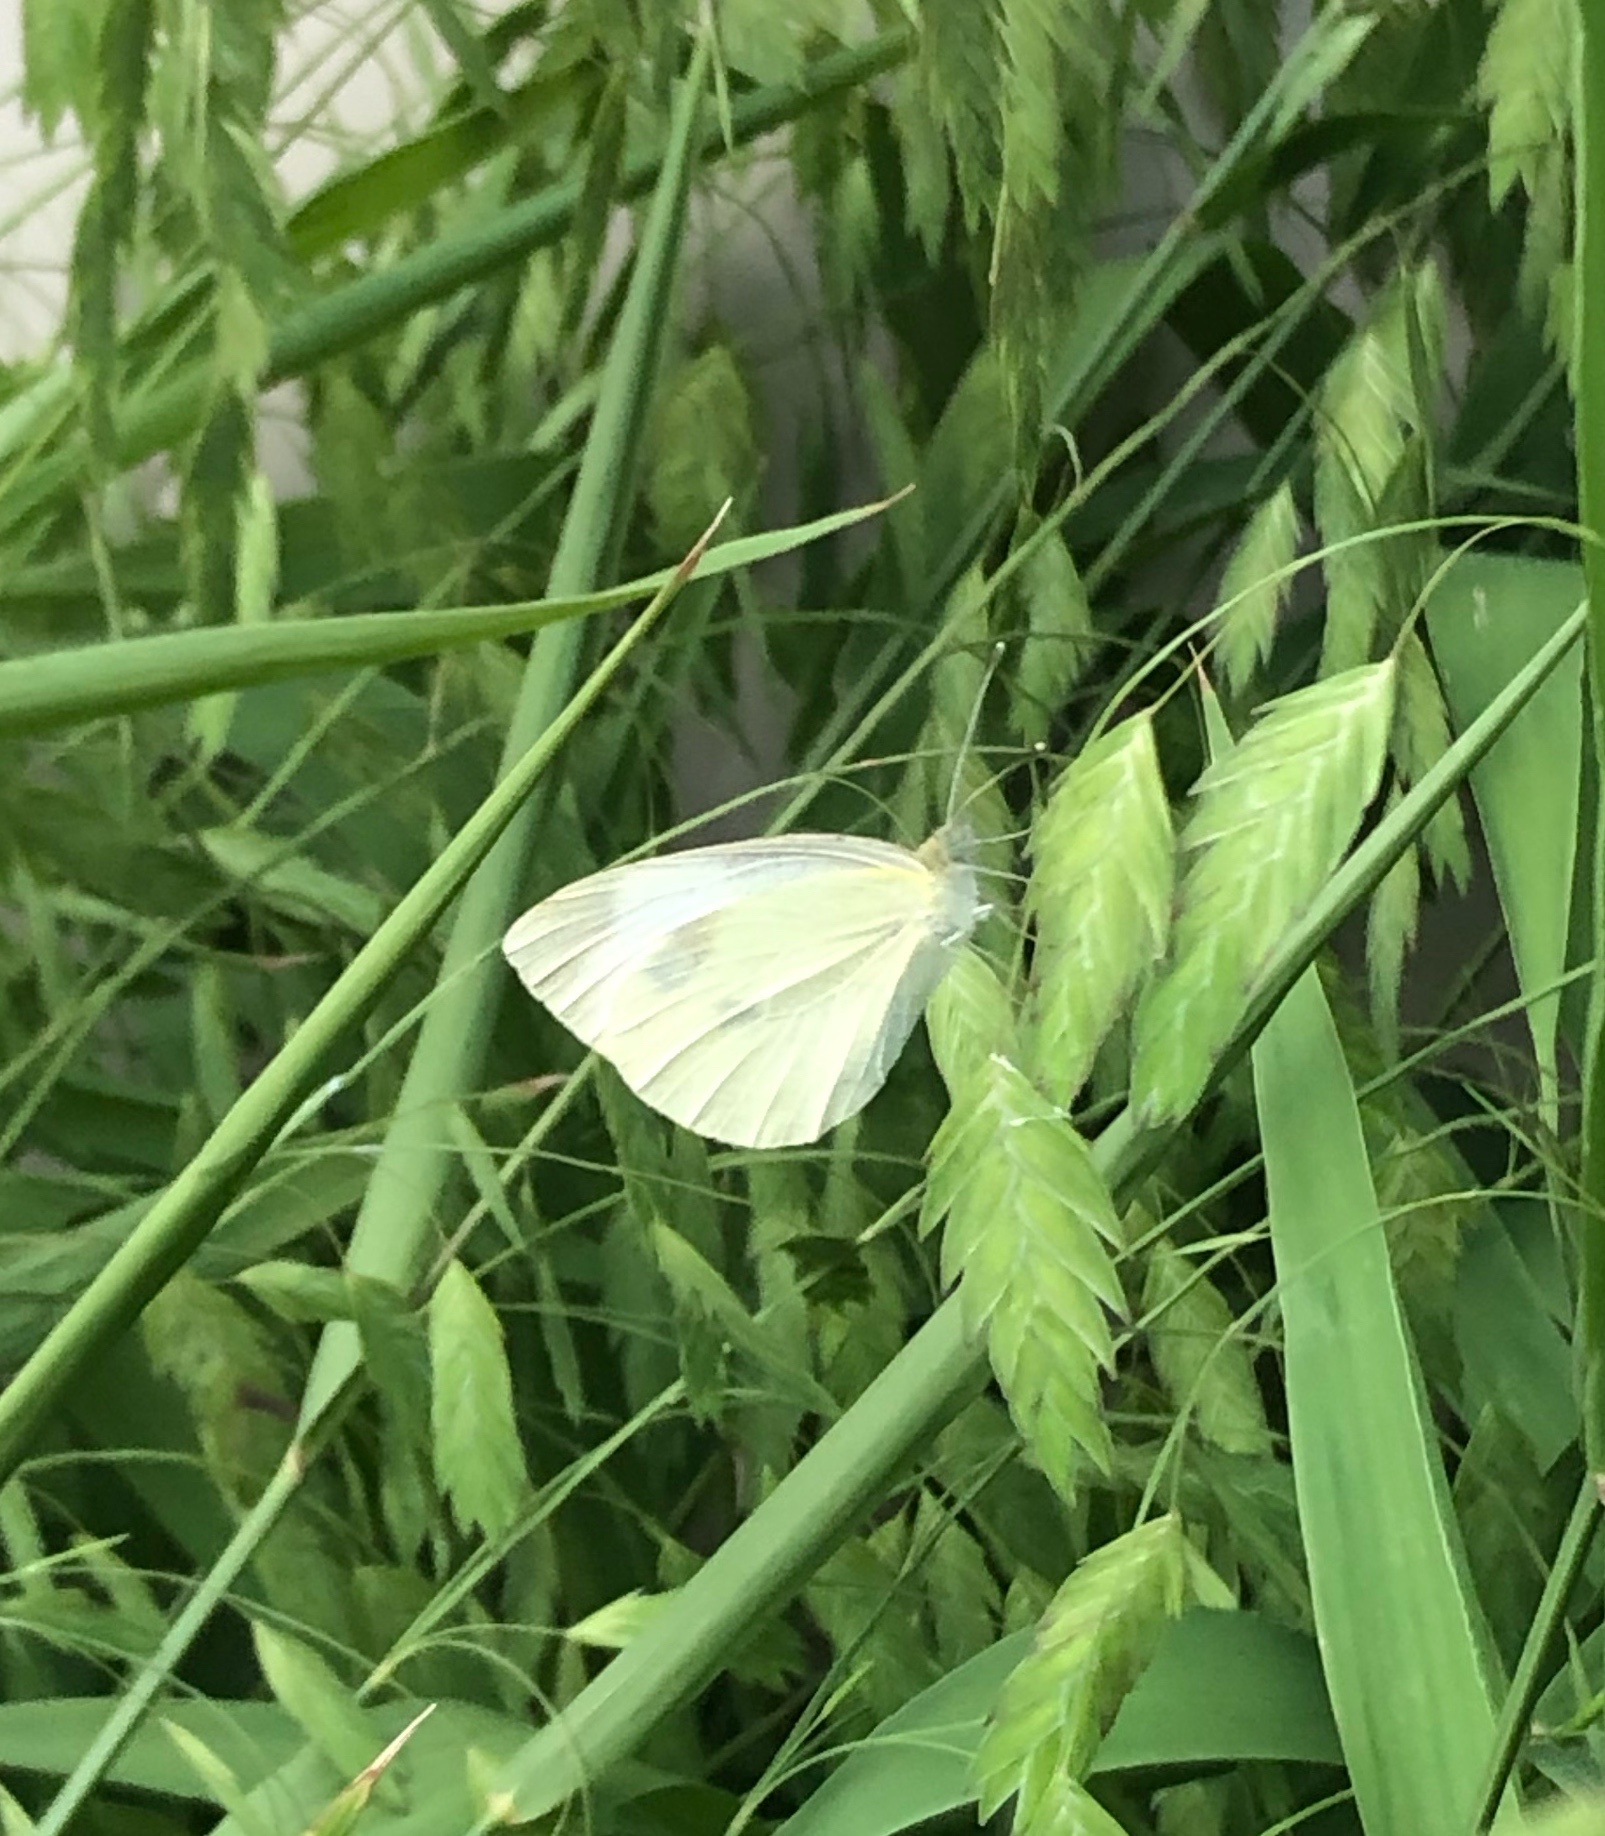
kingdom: Animalia
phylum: Arthropoda
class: Insecta
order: Lepidoptera
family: Pieridae
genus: Pieris
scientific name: Pieris rapae
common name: Small white
